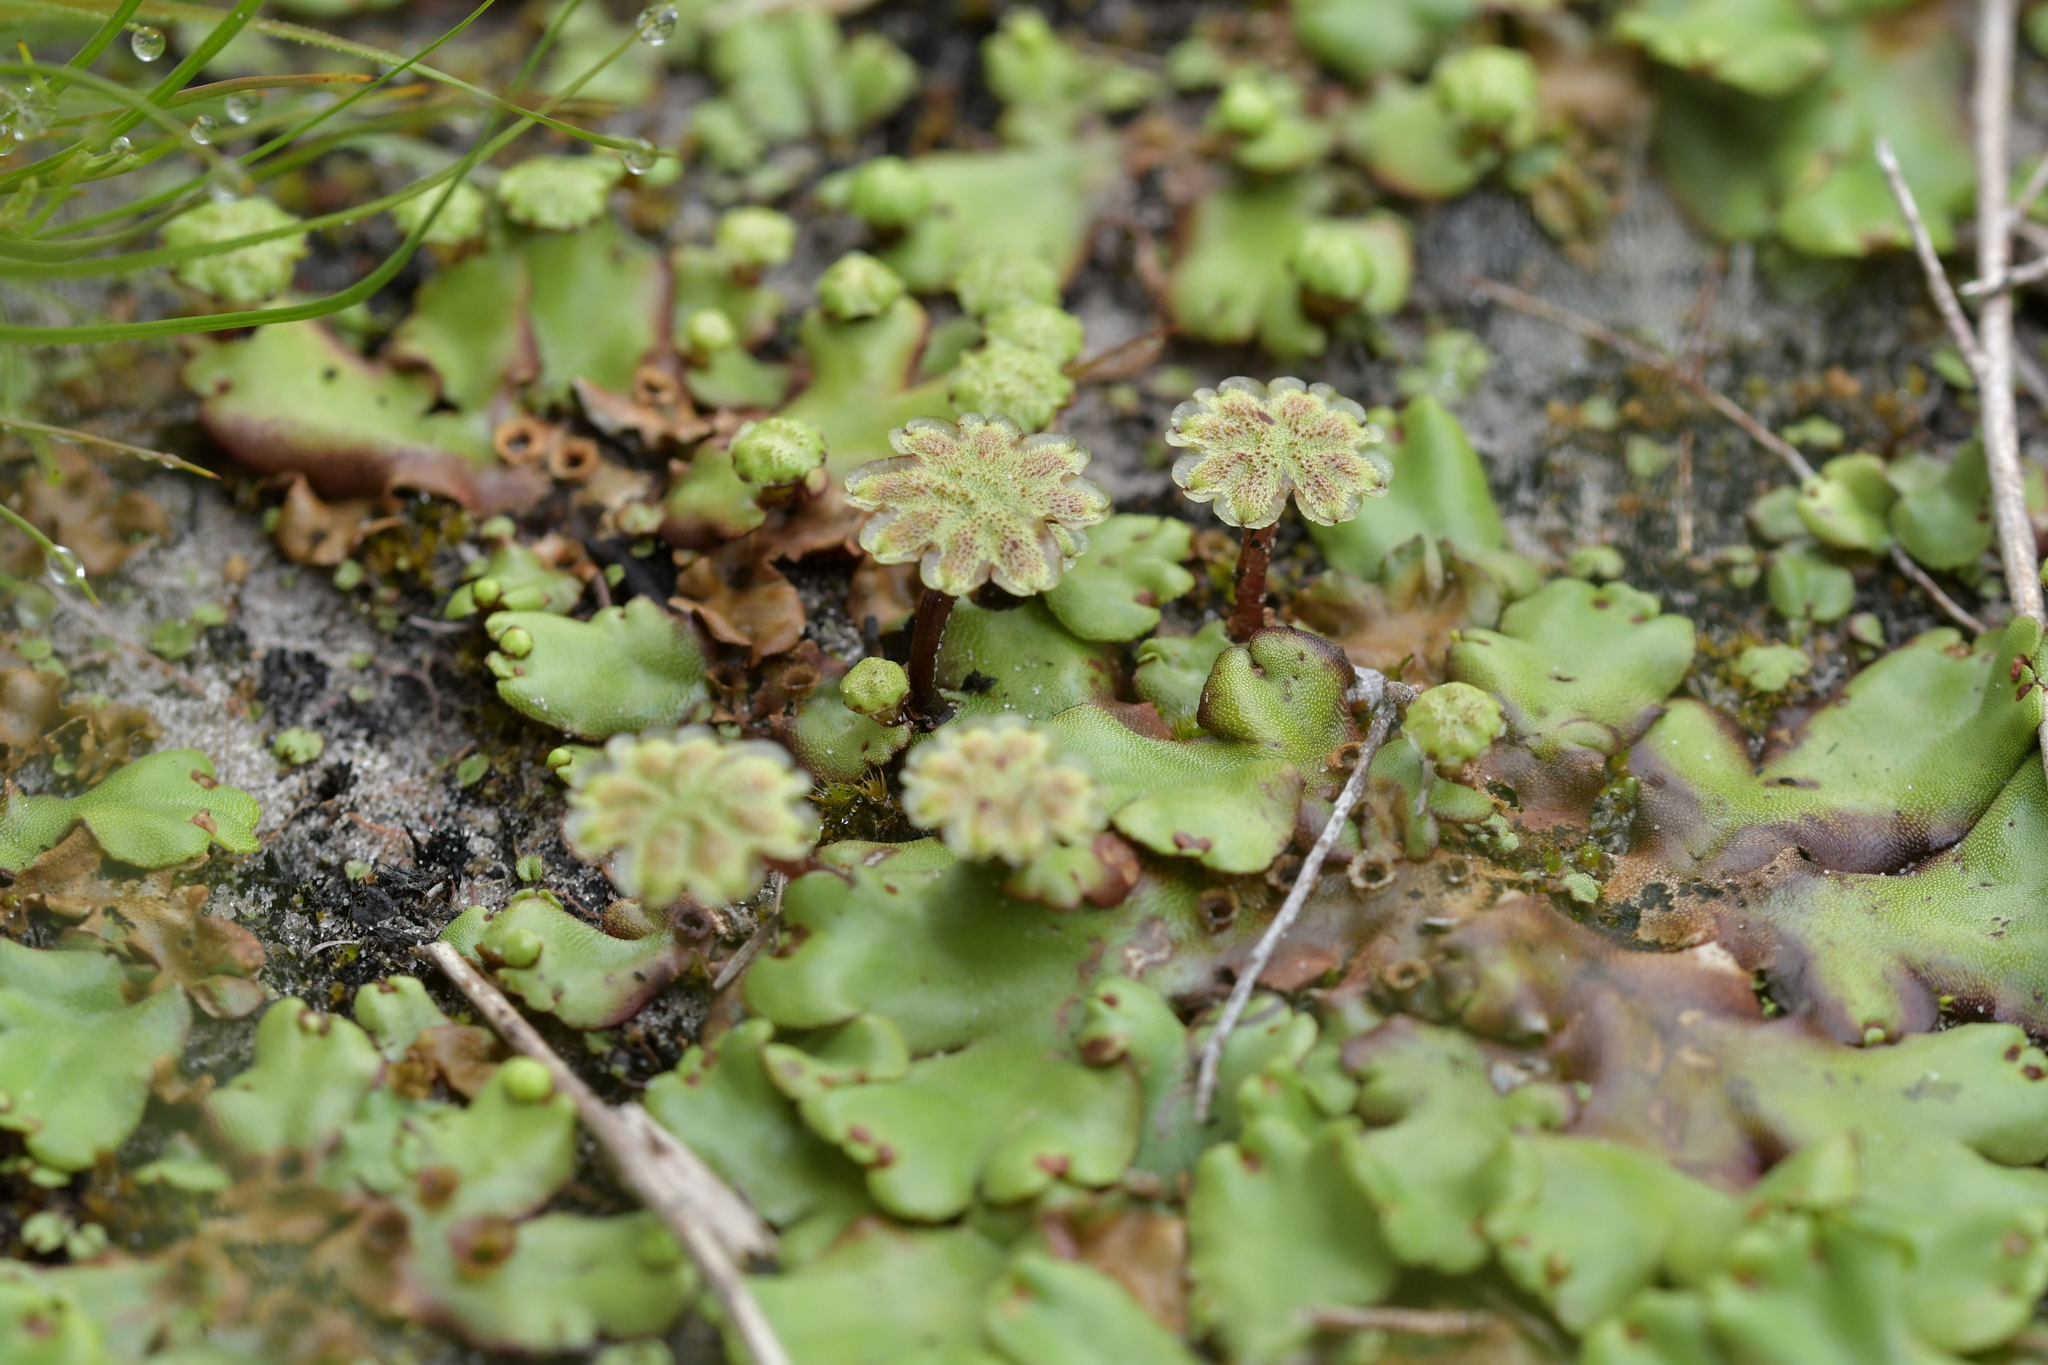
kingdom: Plantae
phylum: Marchantiophyta
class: Marchantiopsida
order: Marchantiales
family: Marchantiaceae
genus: Marchantia
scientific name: Marchantia berteroana
